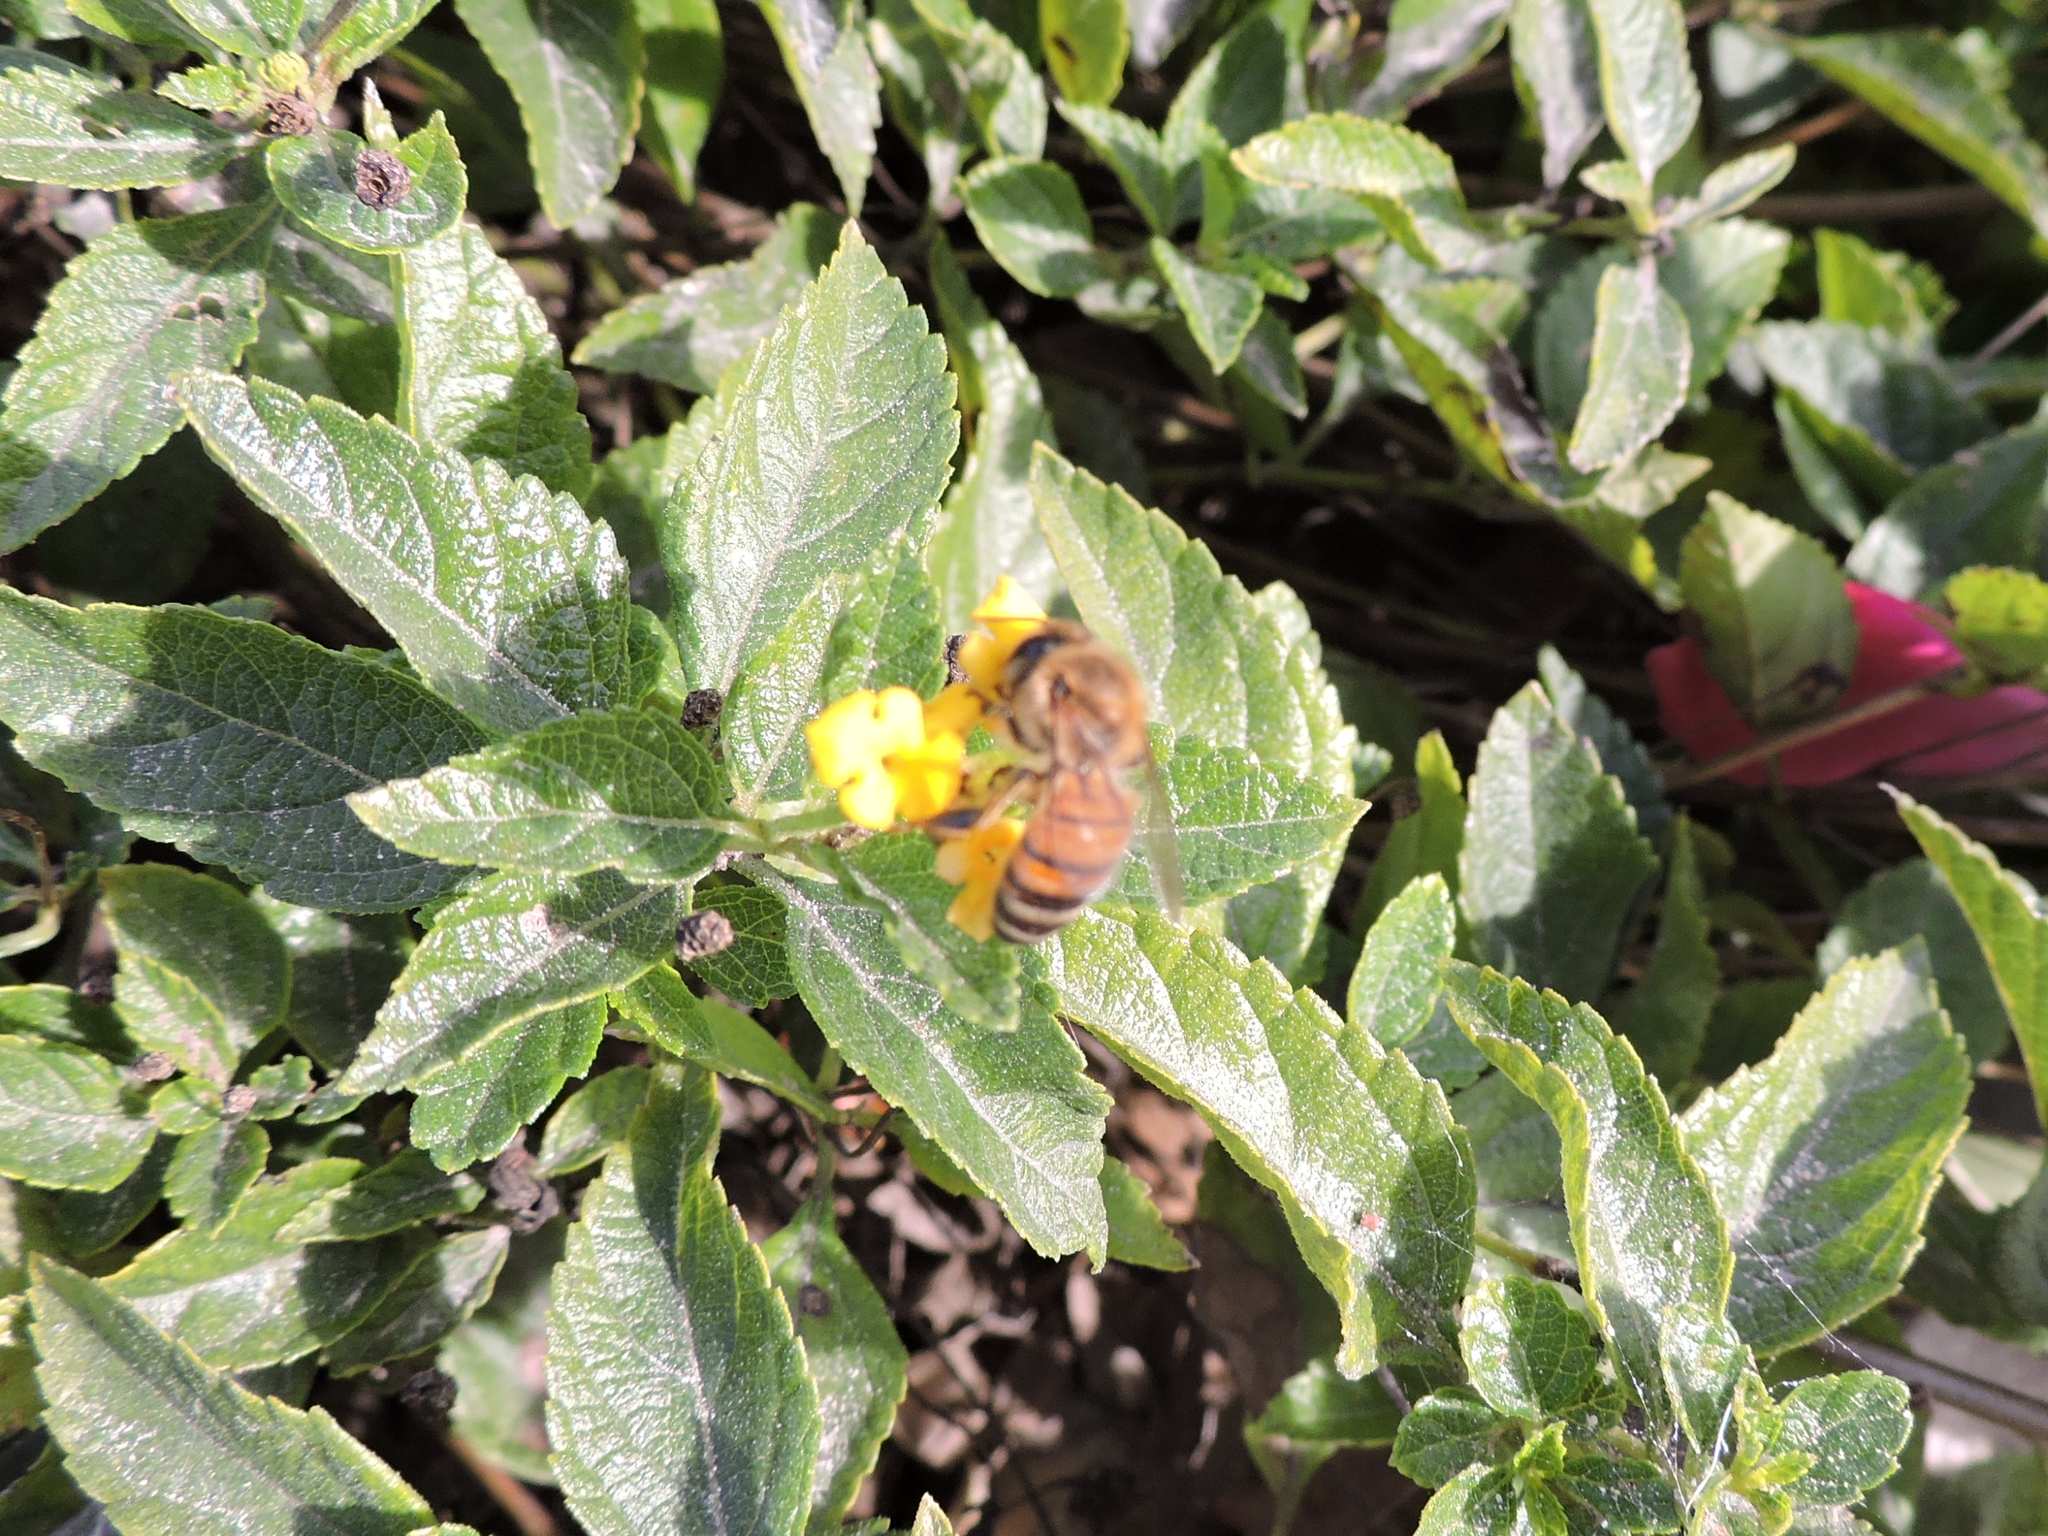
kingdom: Animalia
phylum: Arthropoda
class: Insecta
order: Hymenoptera
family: Apidae
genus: Apis
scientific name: Apis mellifera
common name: Honey bee
